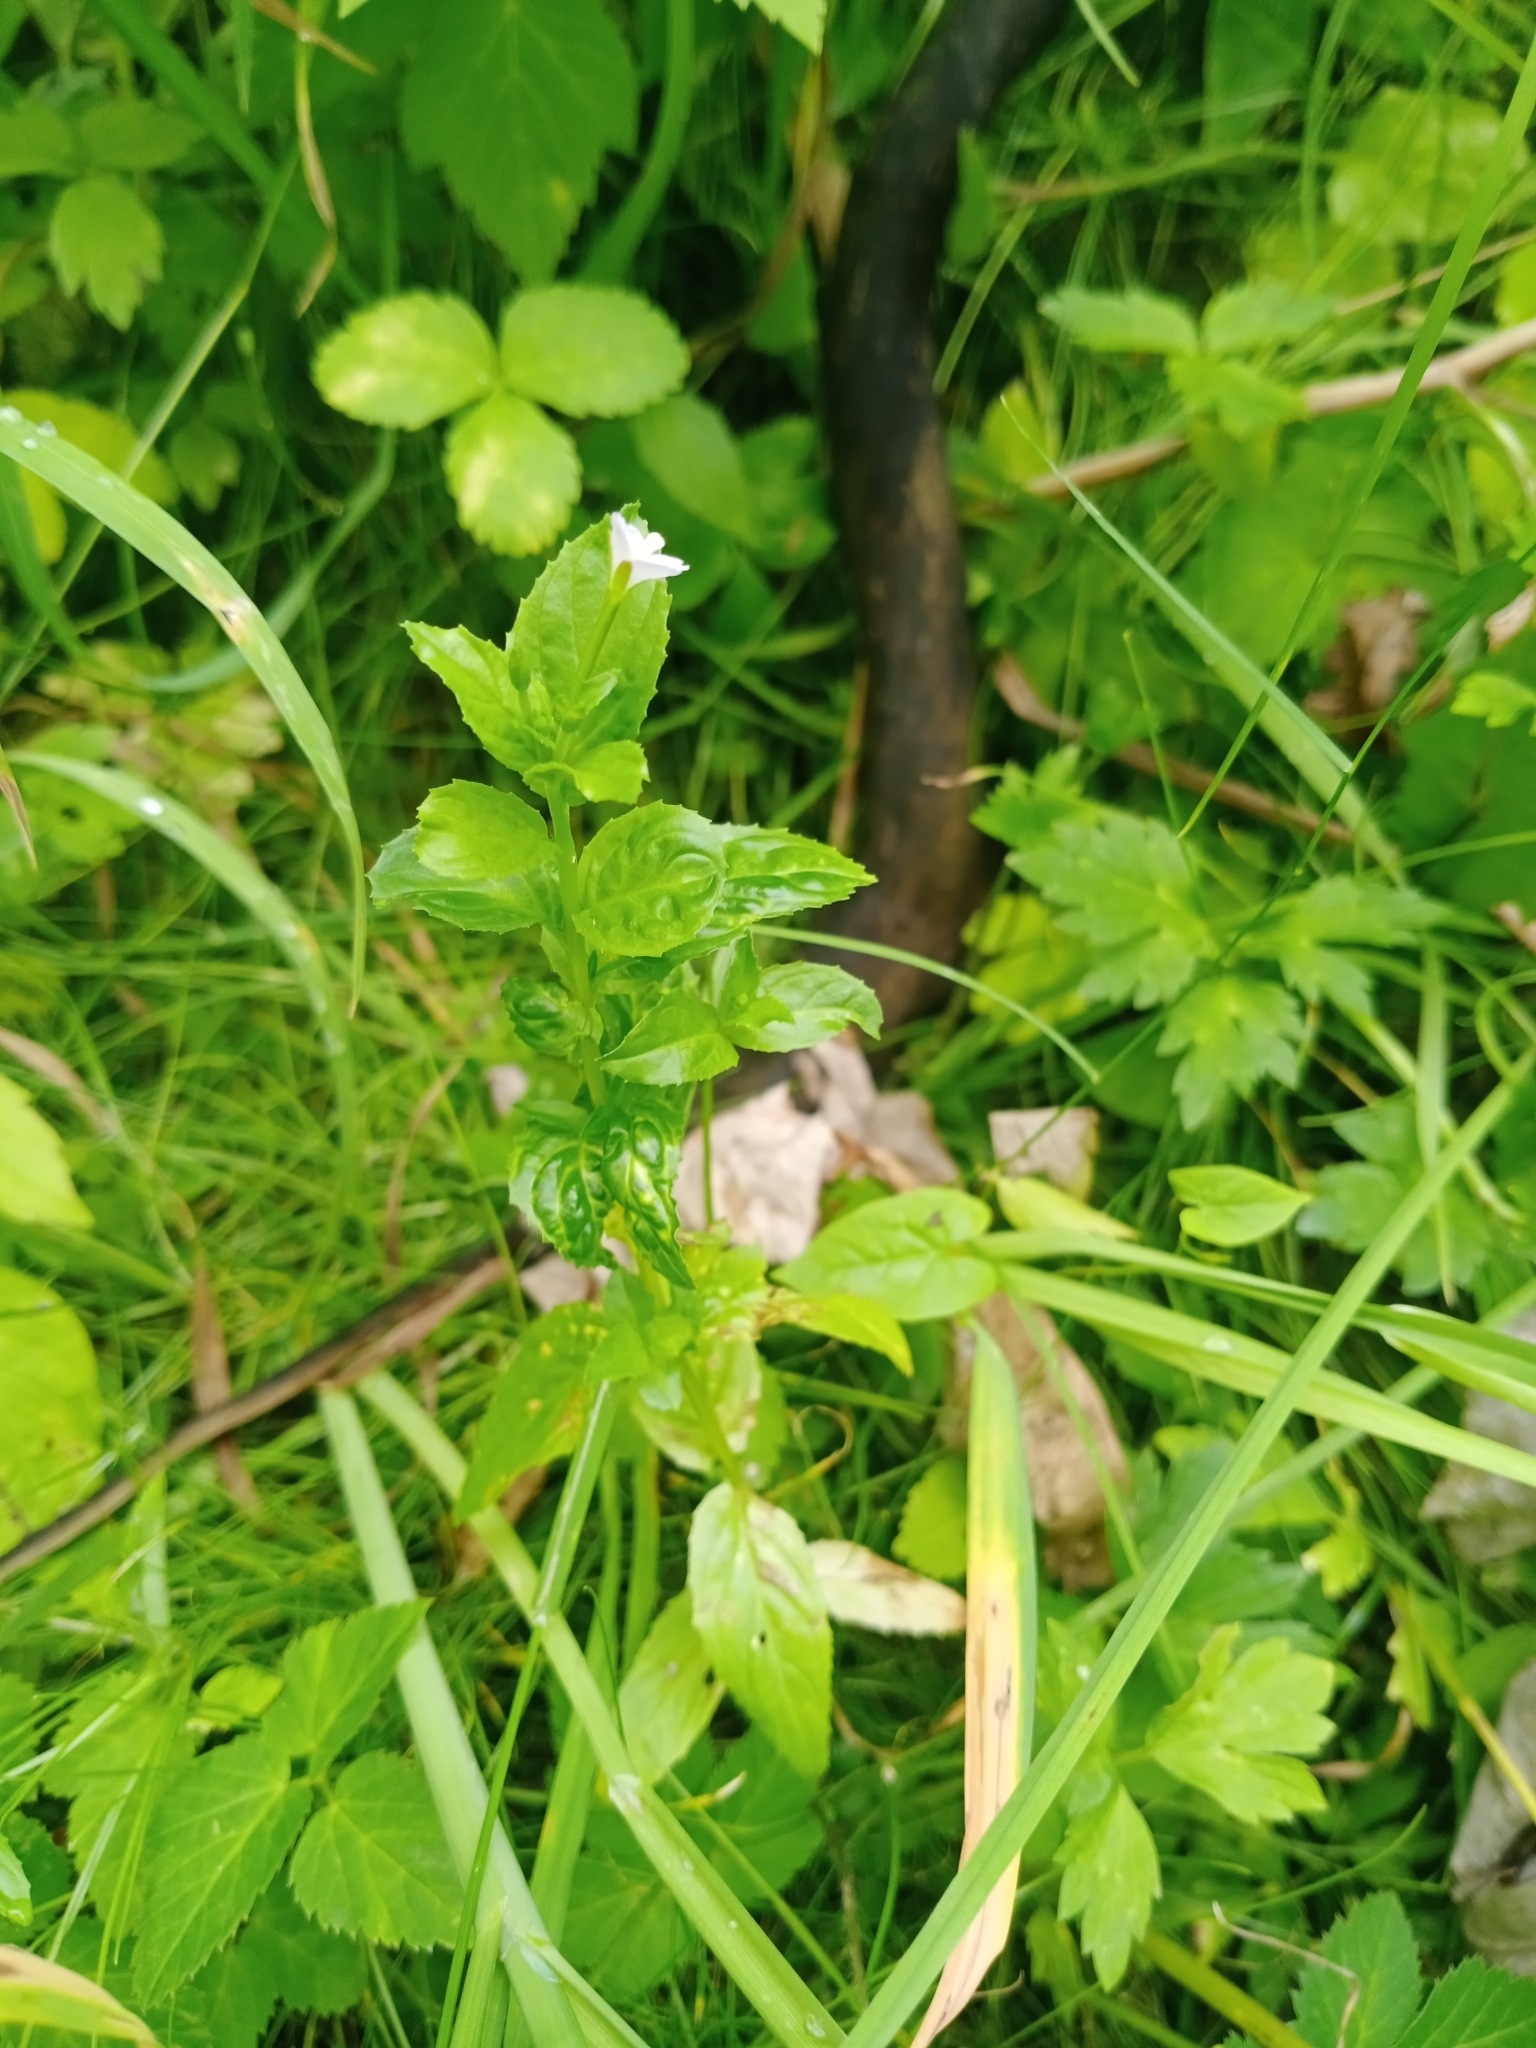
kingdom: Plantae
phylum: Tracheophyta
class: Magnoliopsida
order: Myrtales
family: Onagraceae
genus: Epilobium
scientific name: Epilobium pseudorubescens
